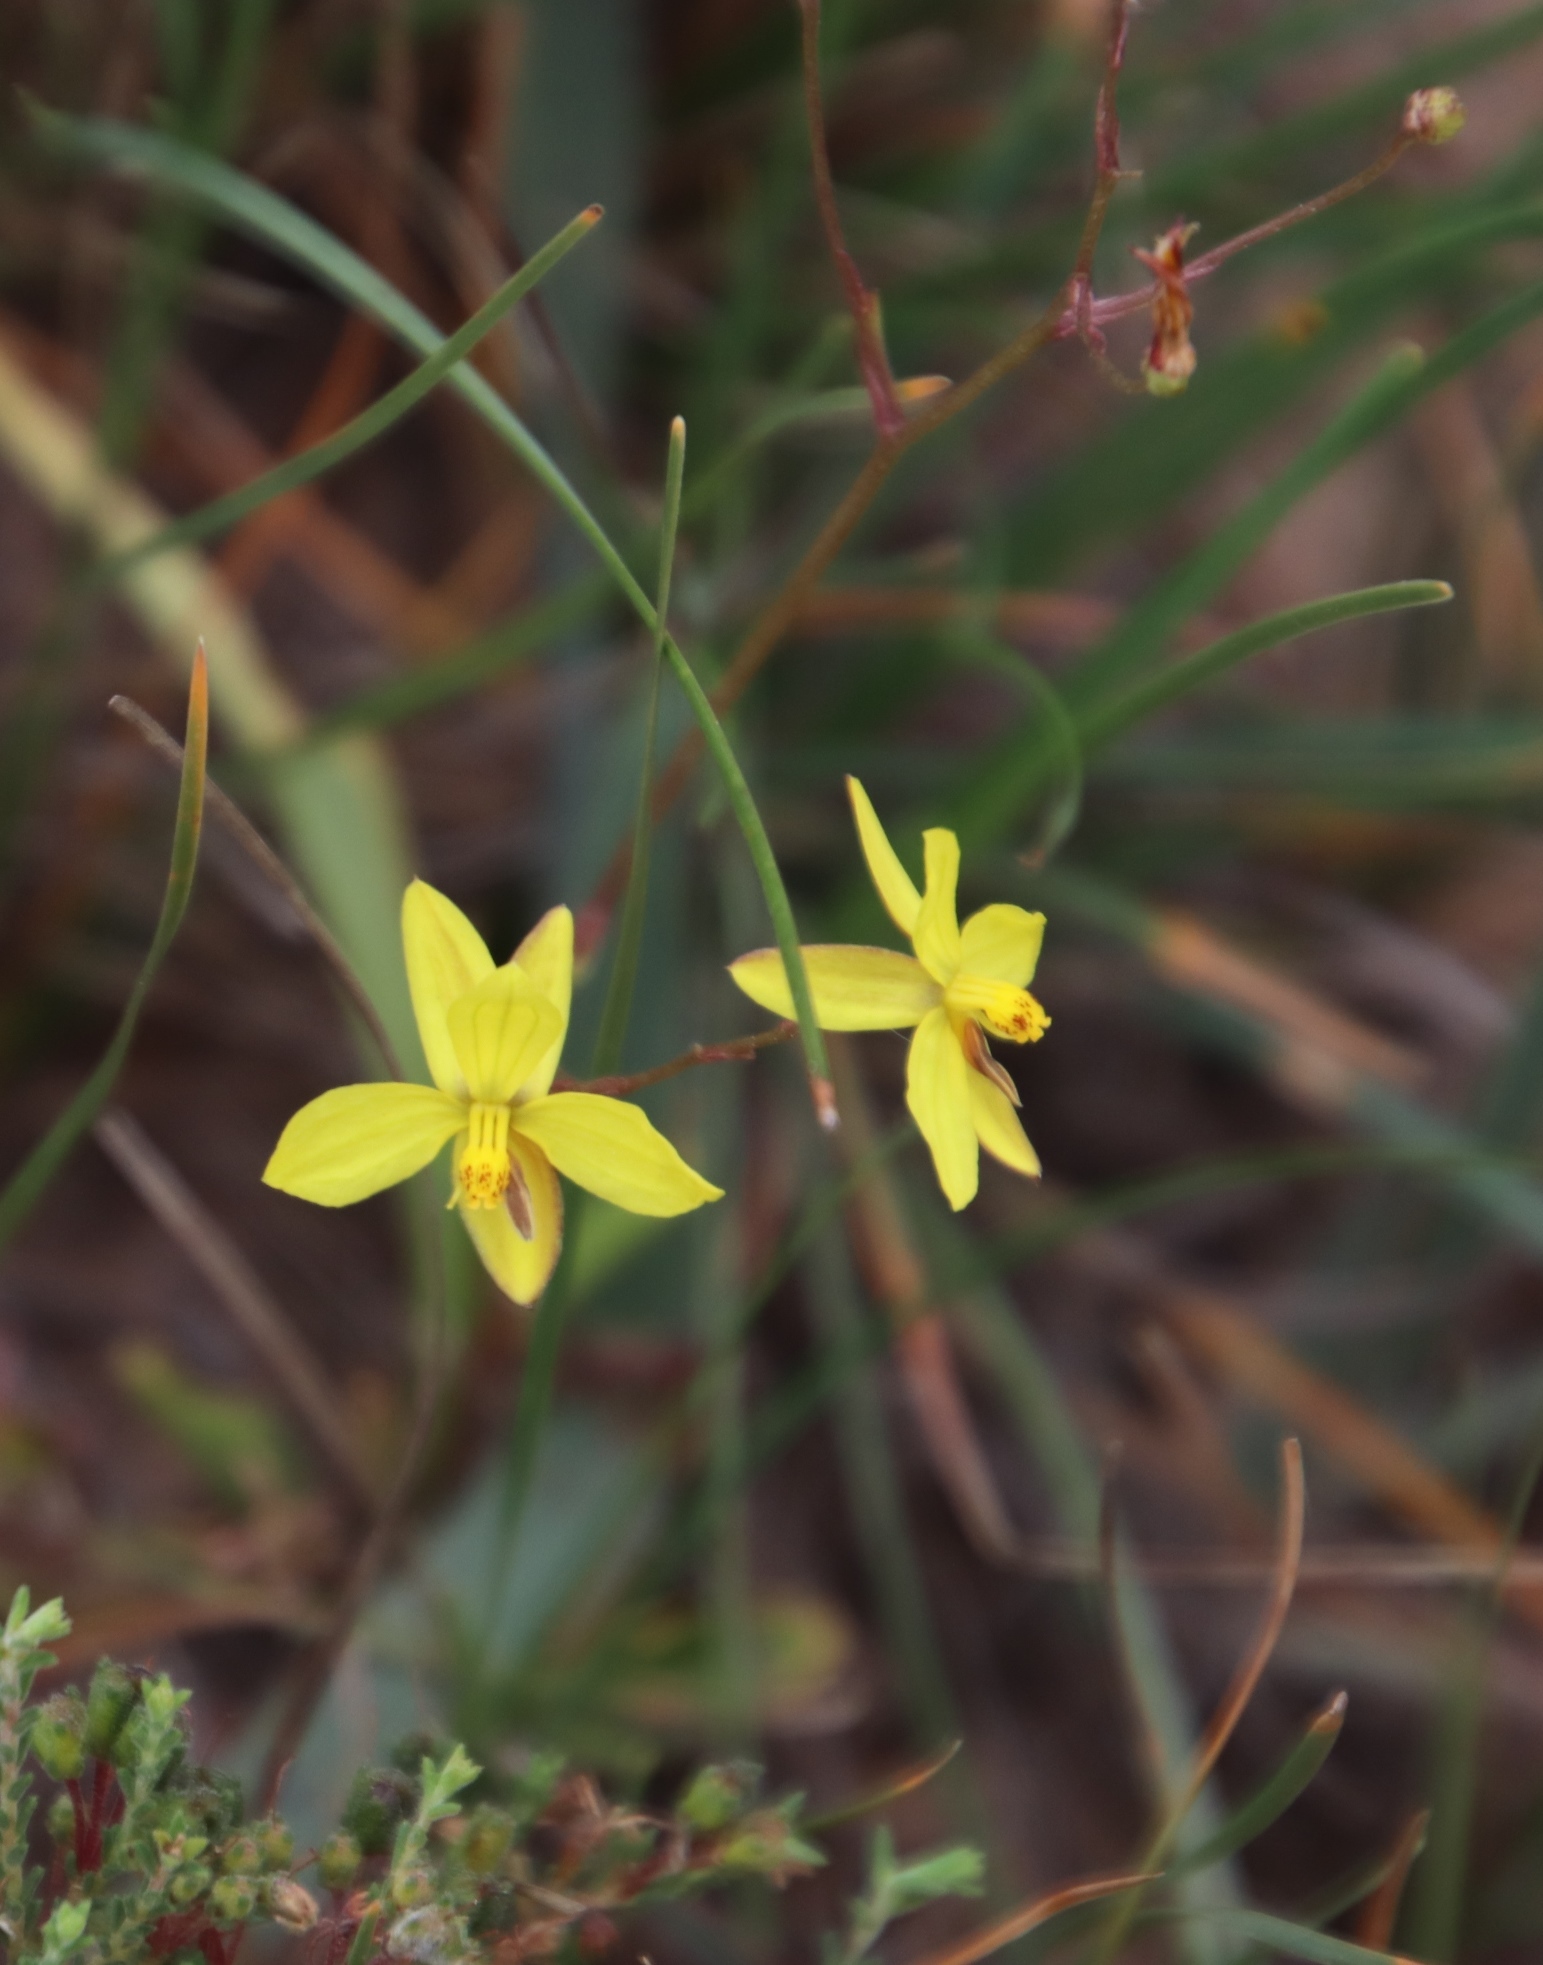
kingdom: Plantae
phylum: Tracheophyta
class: Liliopsida
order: Asparagales
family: Tecophilaeaceae
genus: Cyanella
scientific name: Cyanella lutea
